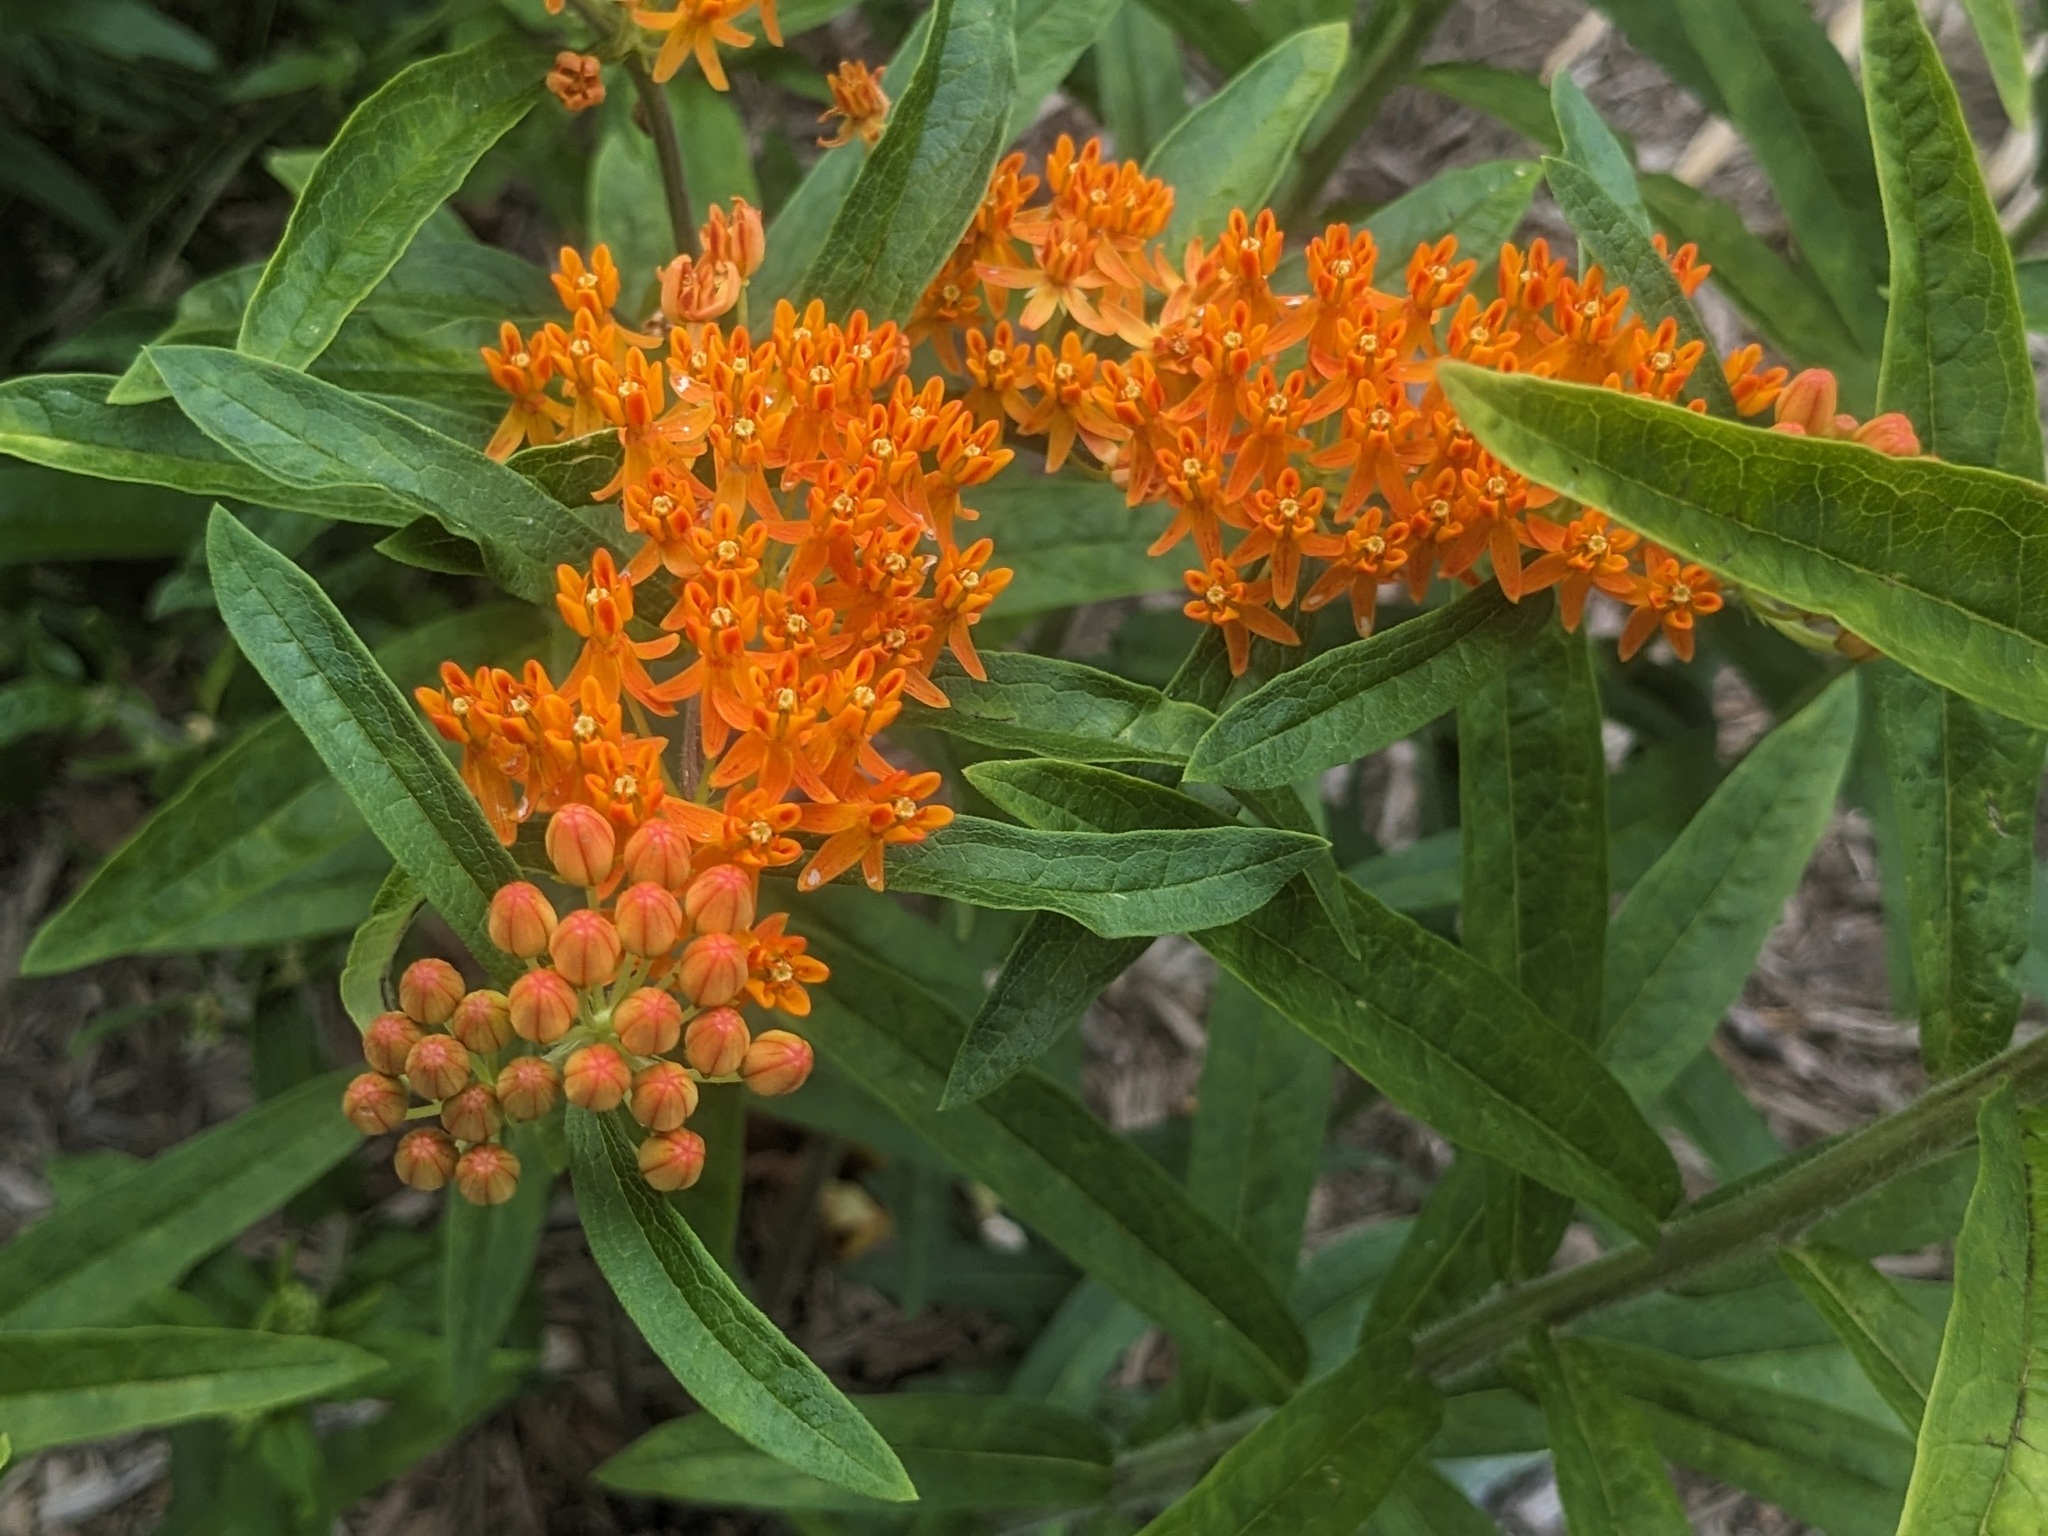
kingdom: Plantae
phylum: Tracheophyta
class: Magnoliopsida
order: Gentianales
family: Apocynaceae
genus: Asclepias
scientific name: Asclepias tuberosa
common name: Butterfly milkweed
